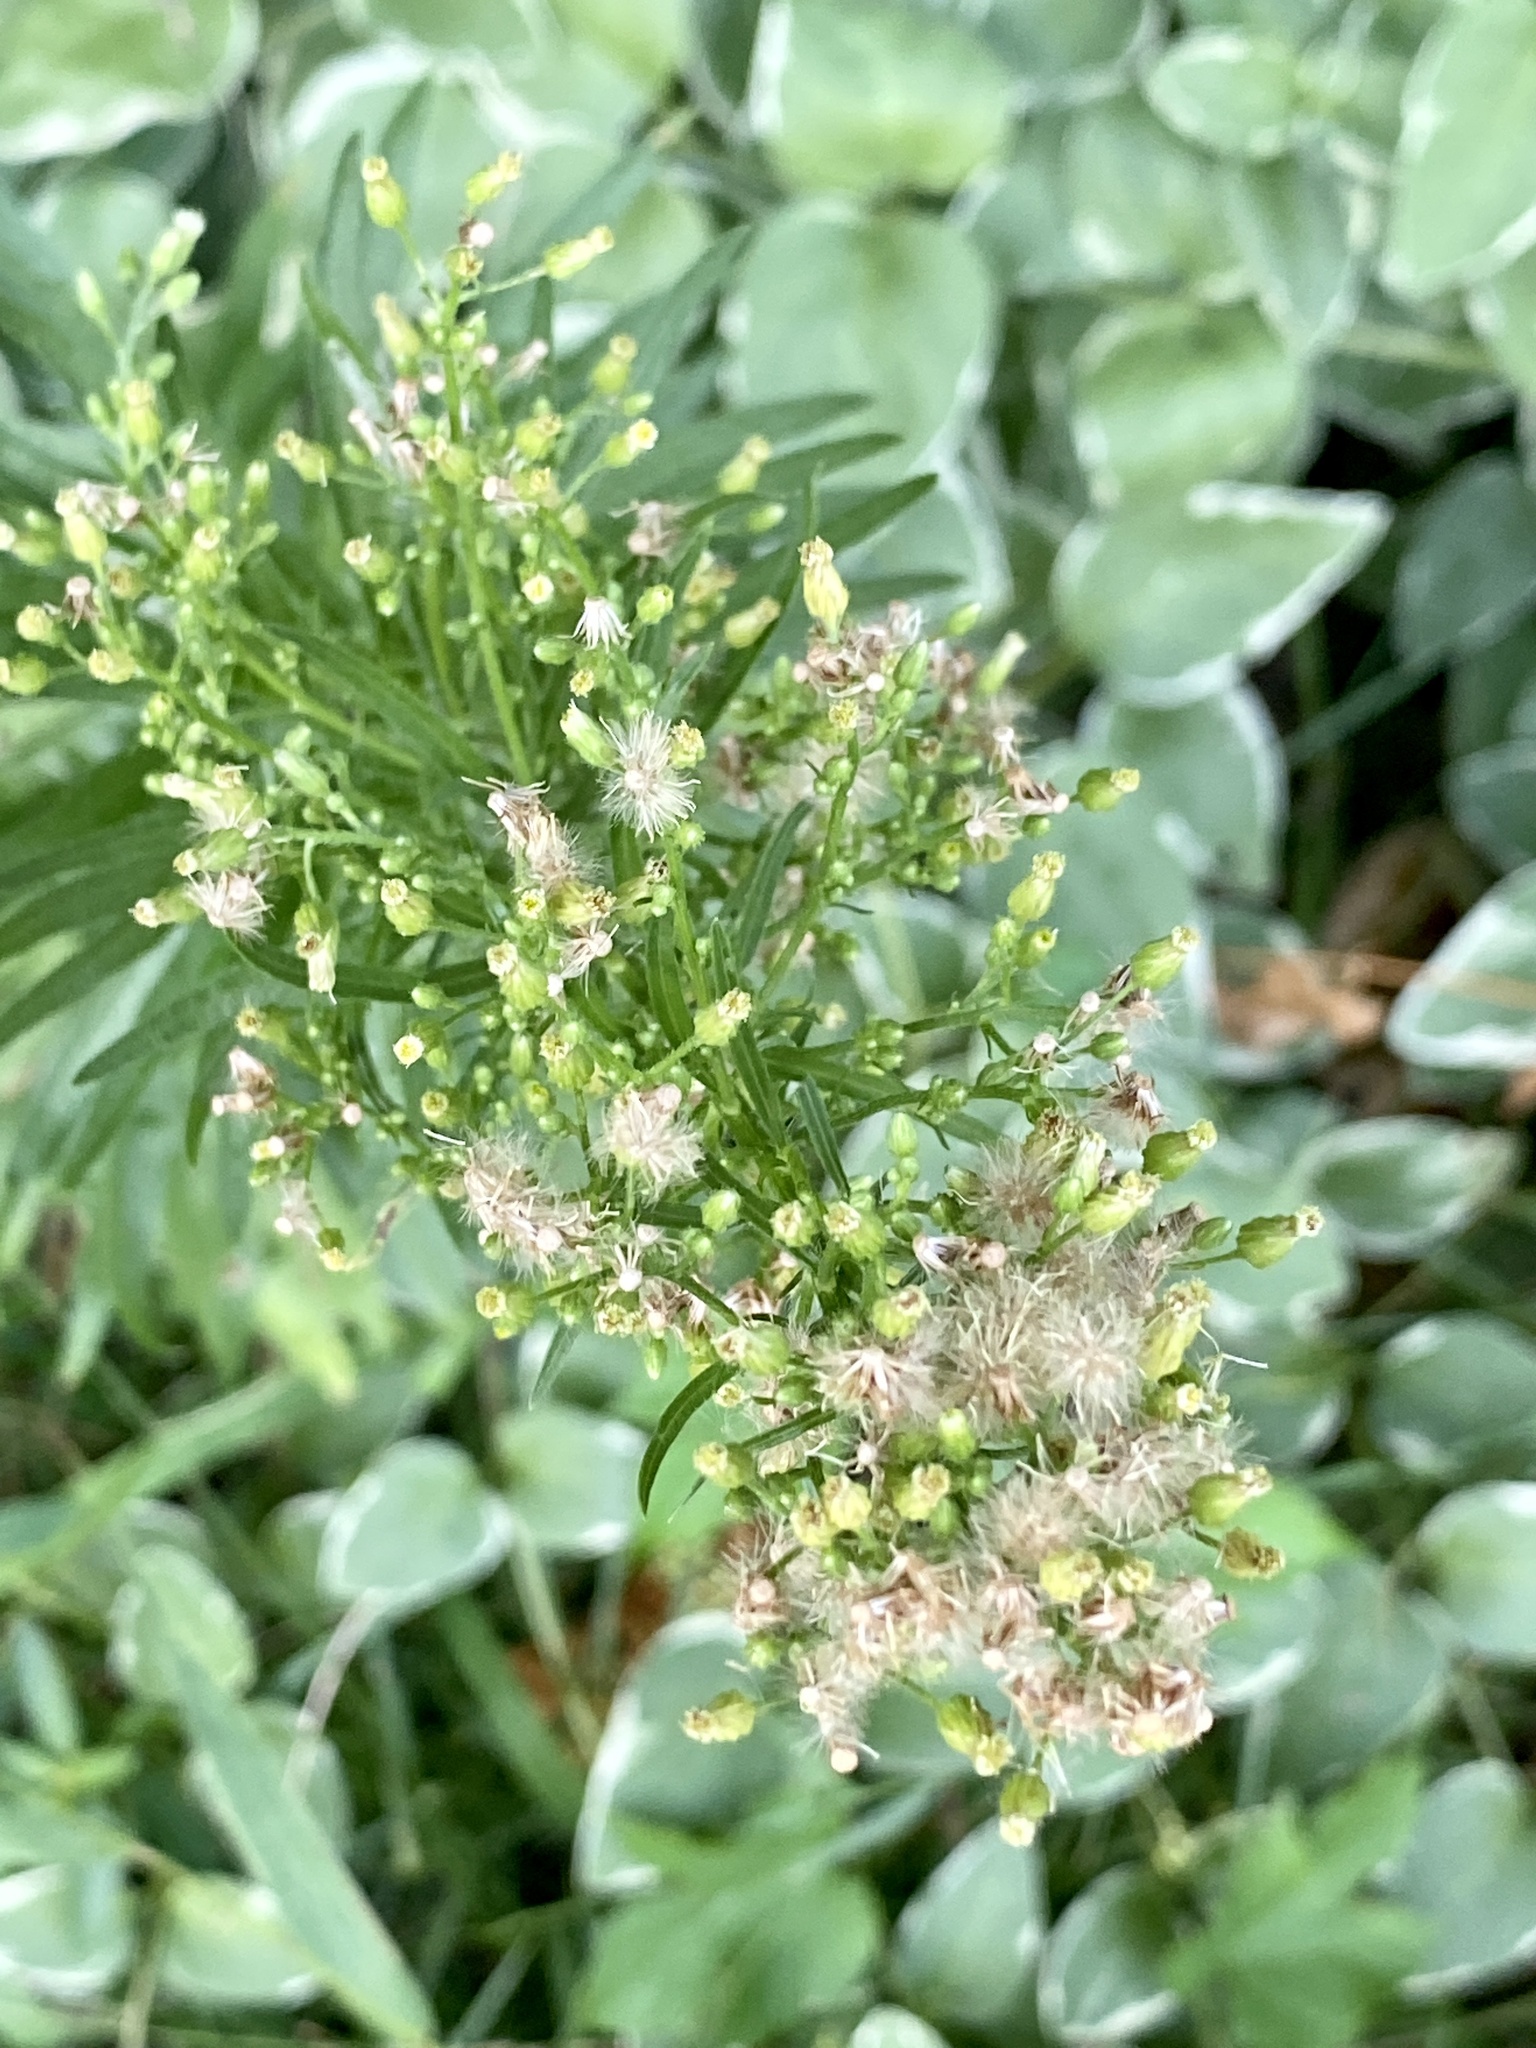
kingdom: Plantae
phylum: Tracheophyta
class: Magnoliopsida
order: Asterales
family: Asteraceae
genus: Erigeron
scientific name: Erigeron canadensis
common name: Canadian fleabane
